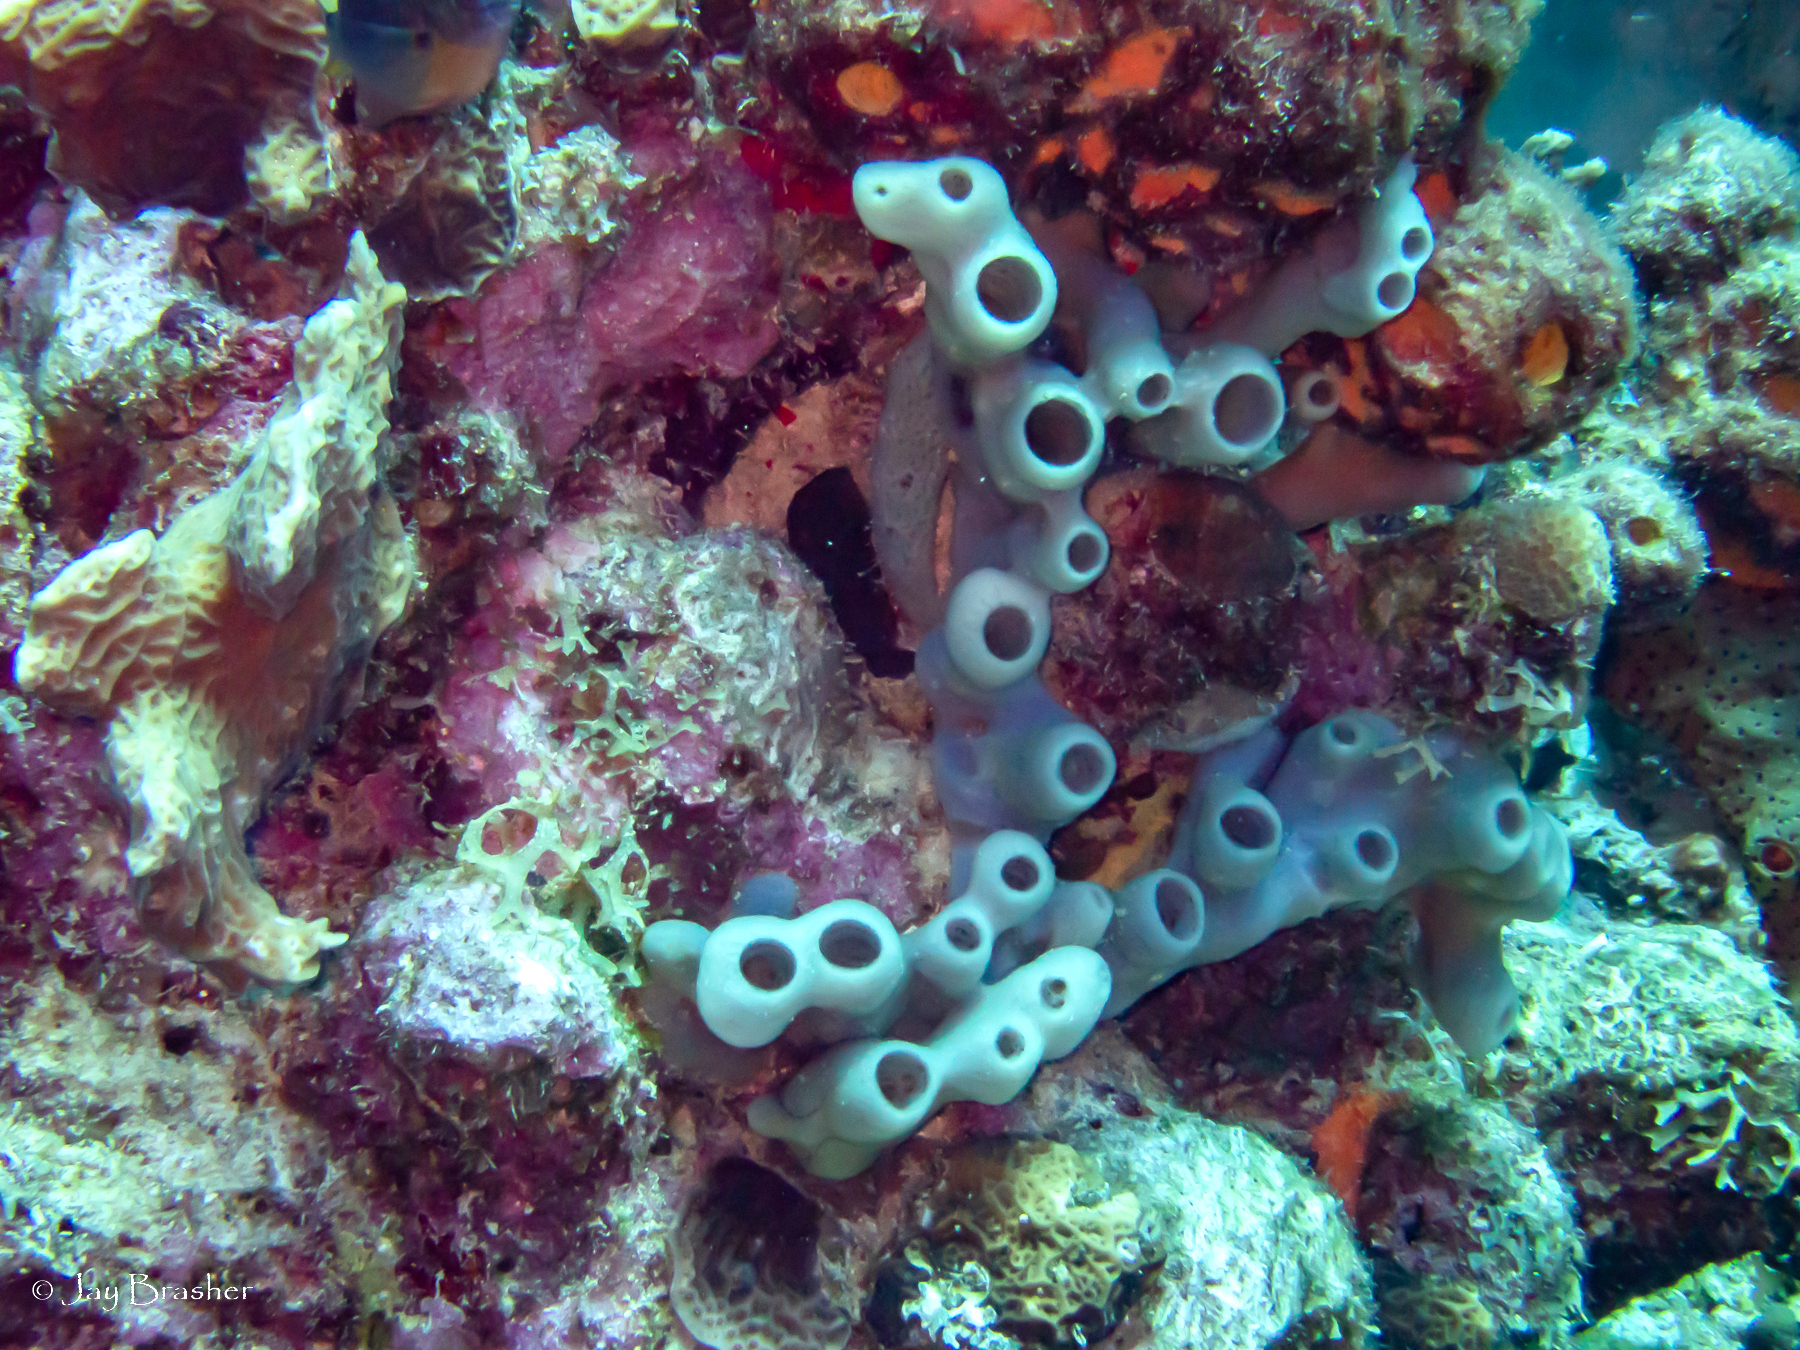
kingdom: Animalia
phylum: Porifera
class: Demospongiae
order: Haplosclerida
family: Callyspongiidae
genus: Callyspongia
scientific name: Callyspongia fallax
